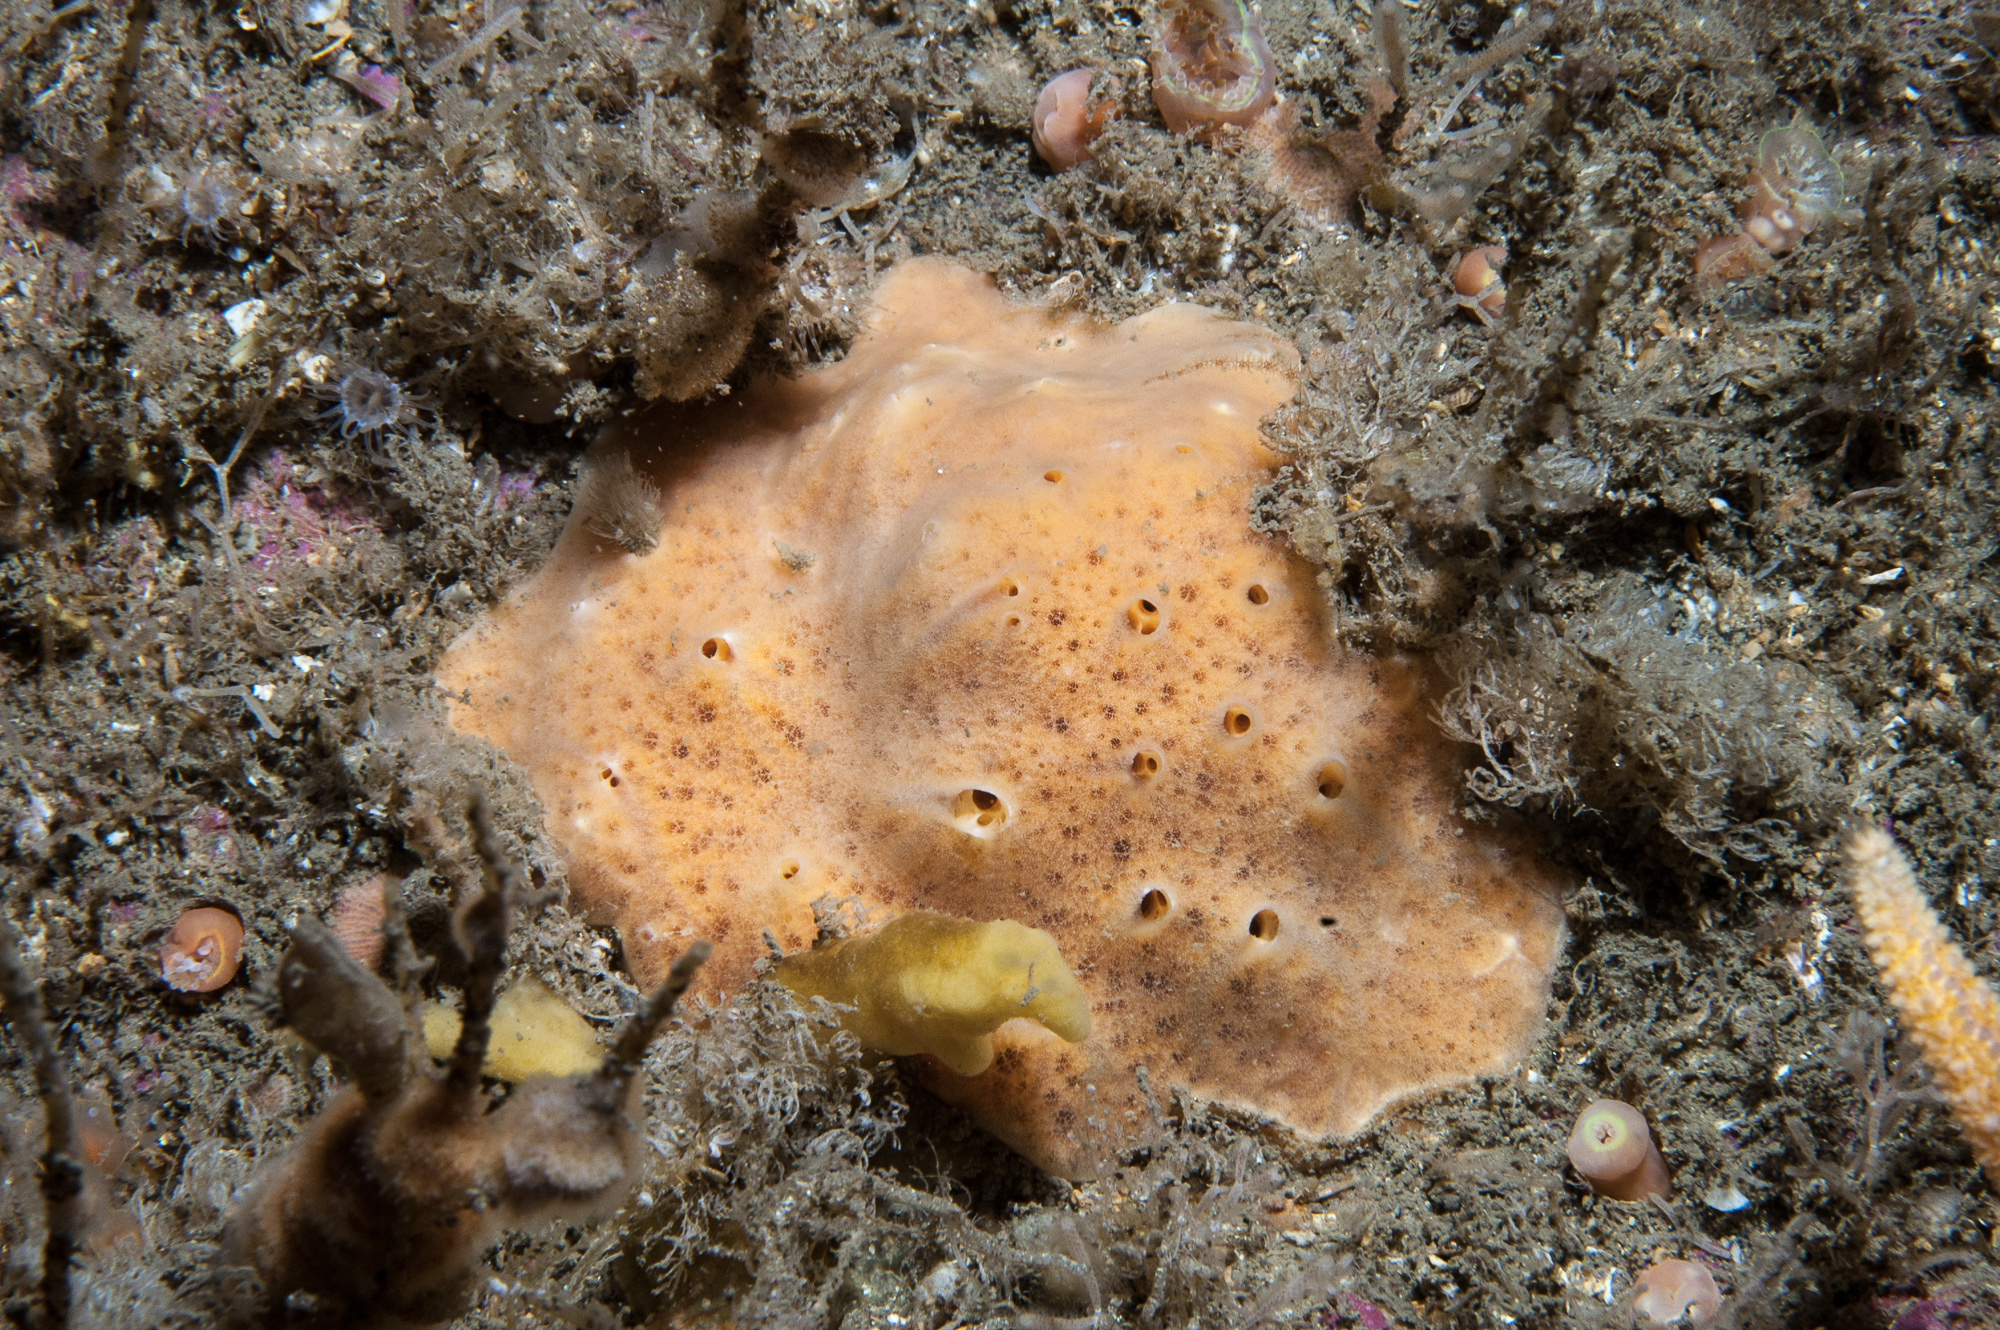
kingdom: Animalia
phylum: Porifera
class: Demospongiae
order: Poecilosclerida
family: Myxillidae
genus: Myxilla
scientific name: Myxilla fimbriata
